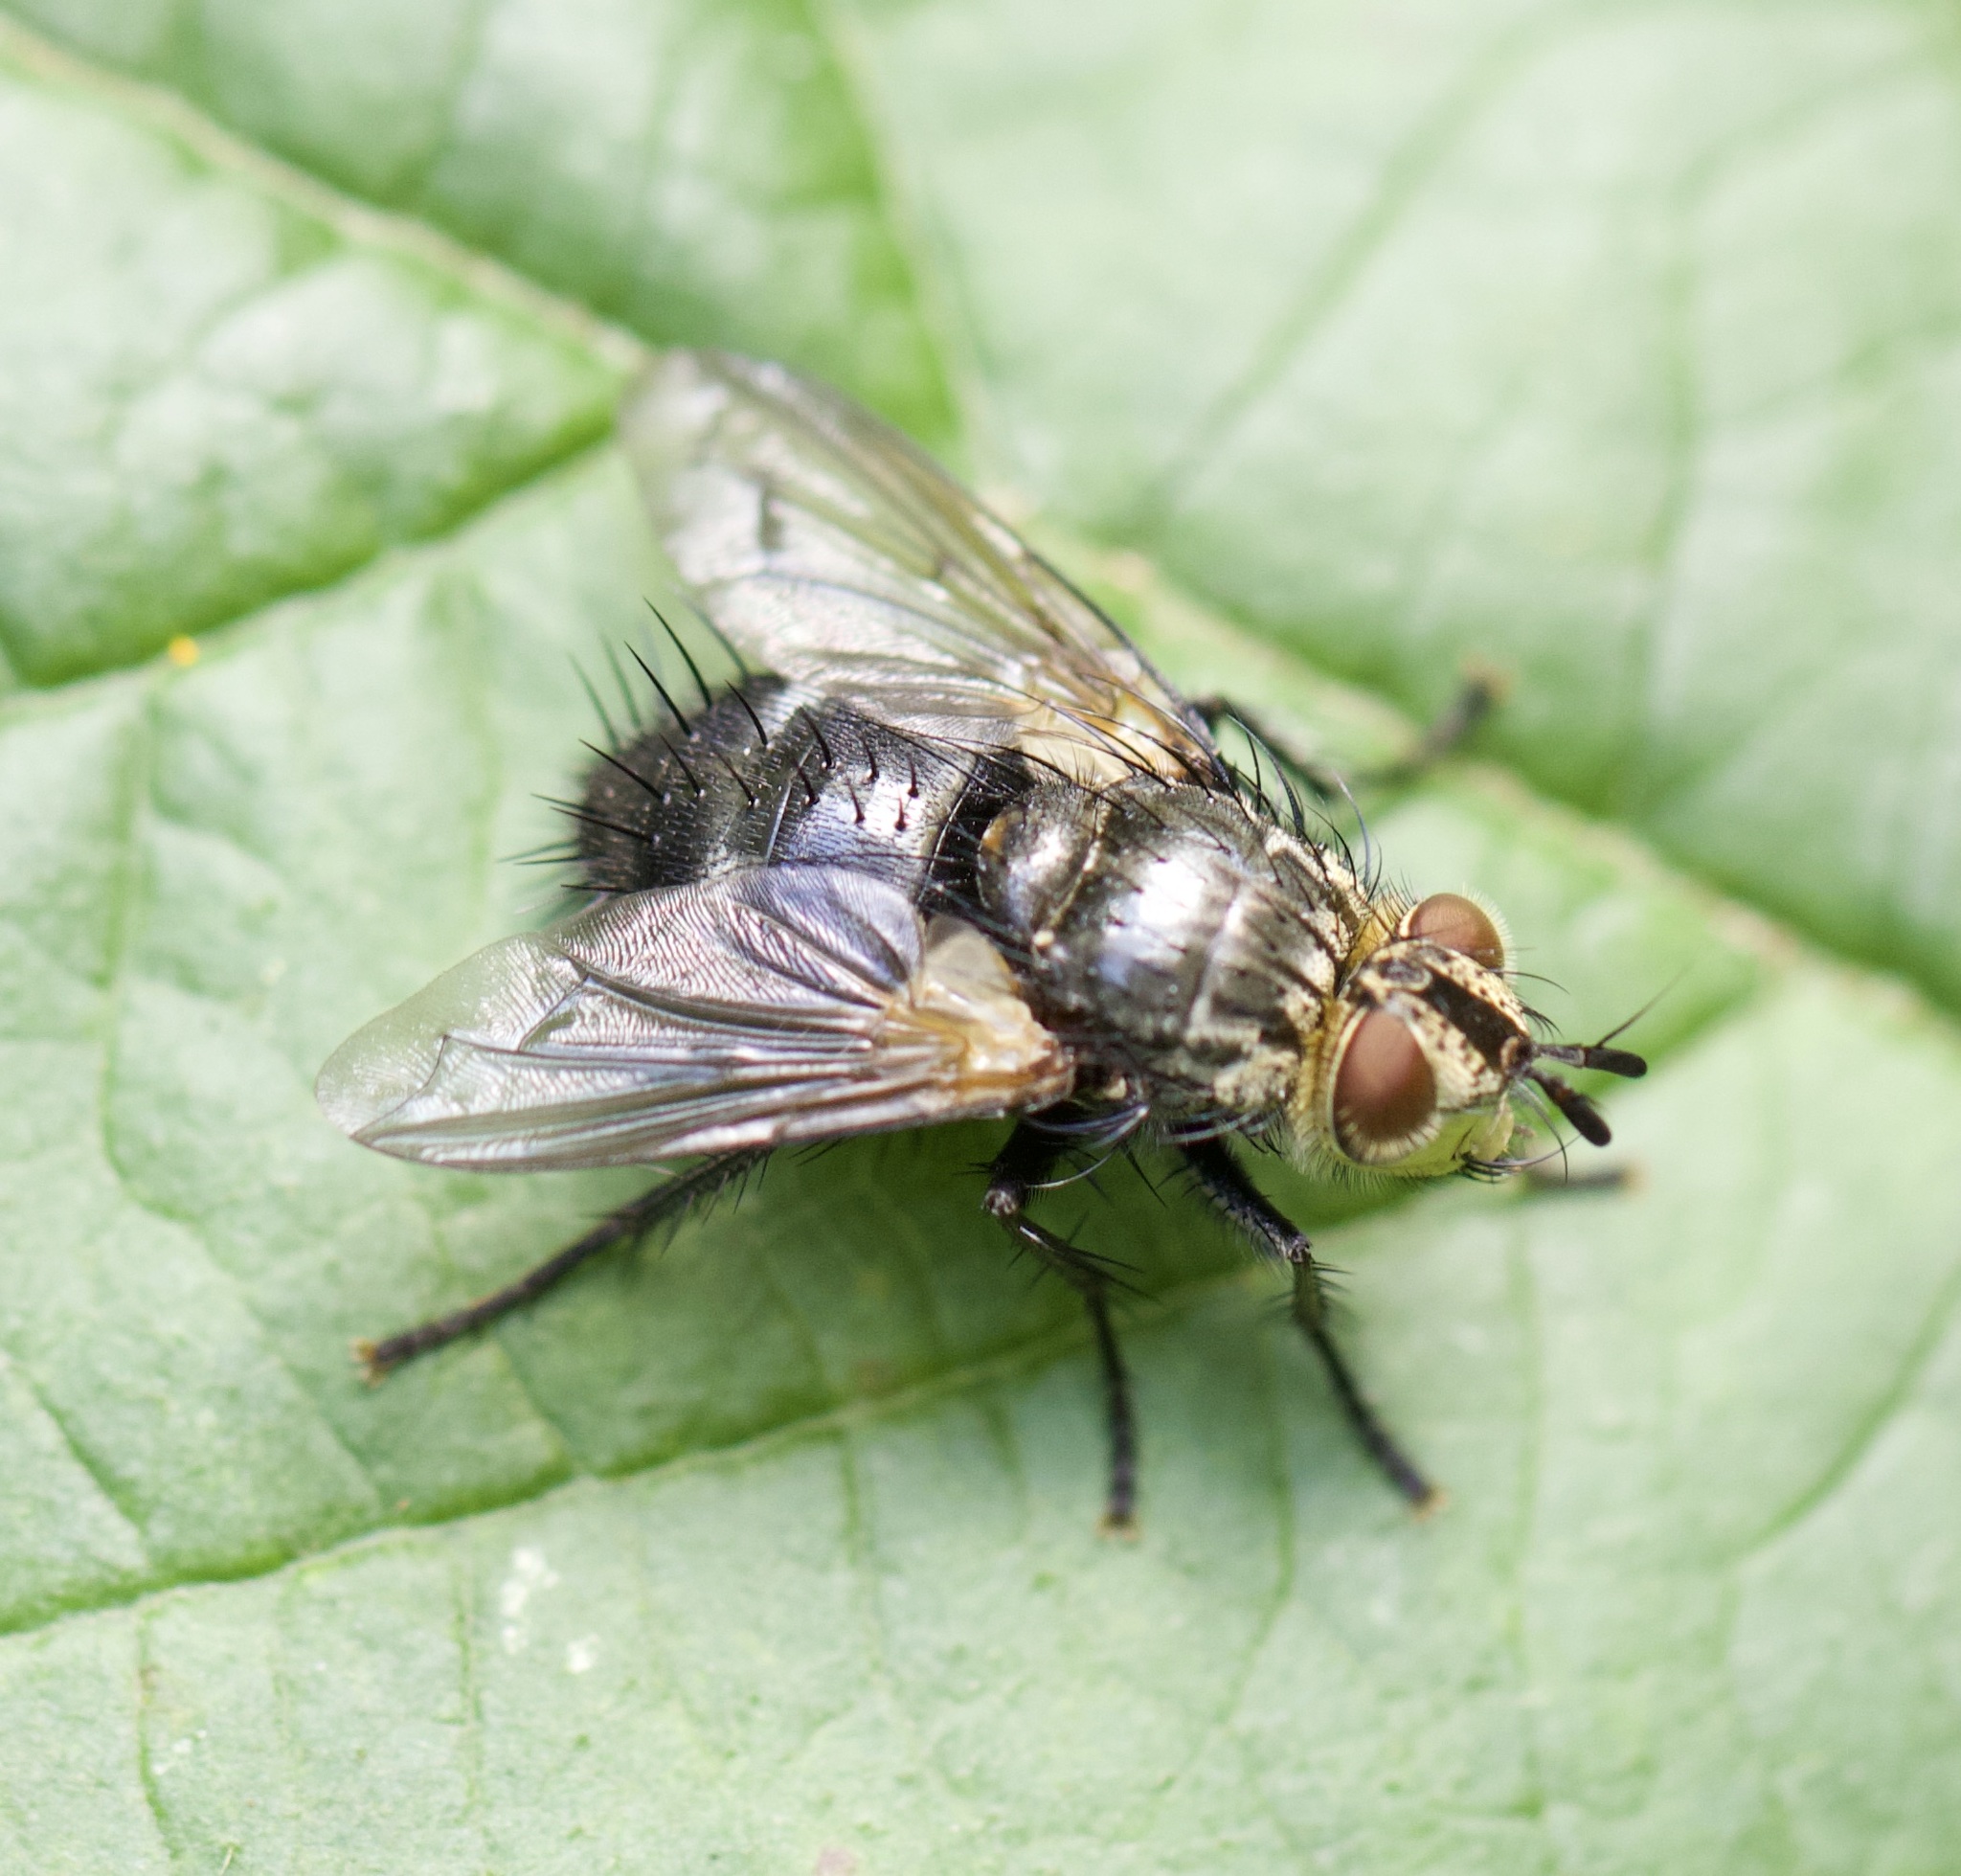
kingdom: Animalia
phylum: Arthropoda
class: Insecta
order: Diptera
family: Tachinidae
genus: Eurithia
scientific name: Eurithia anthophila
